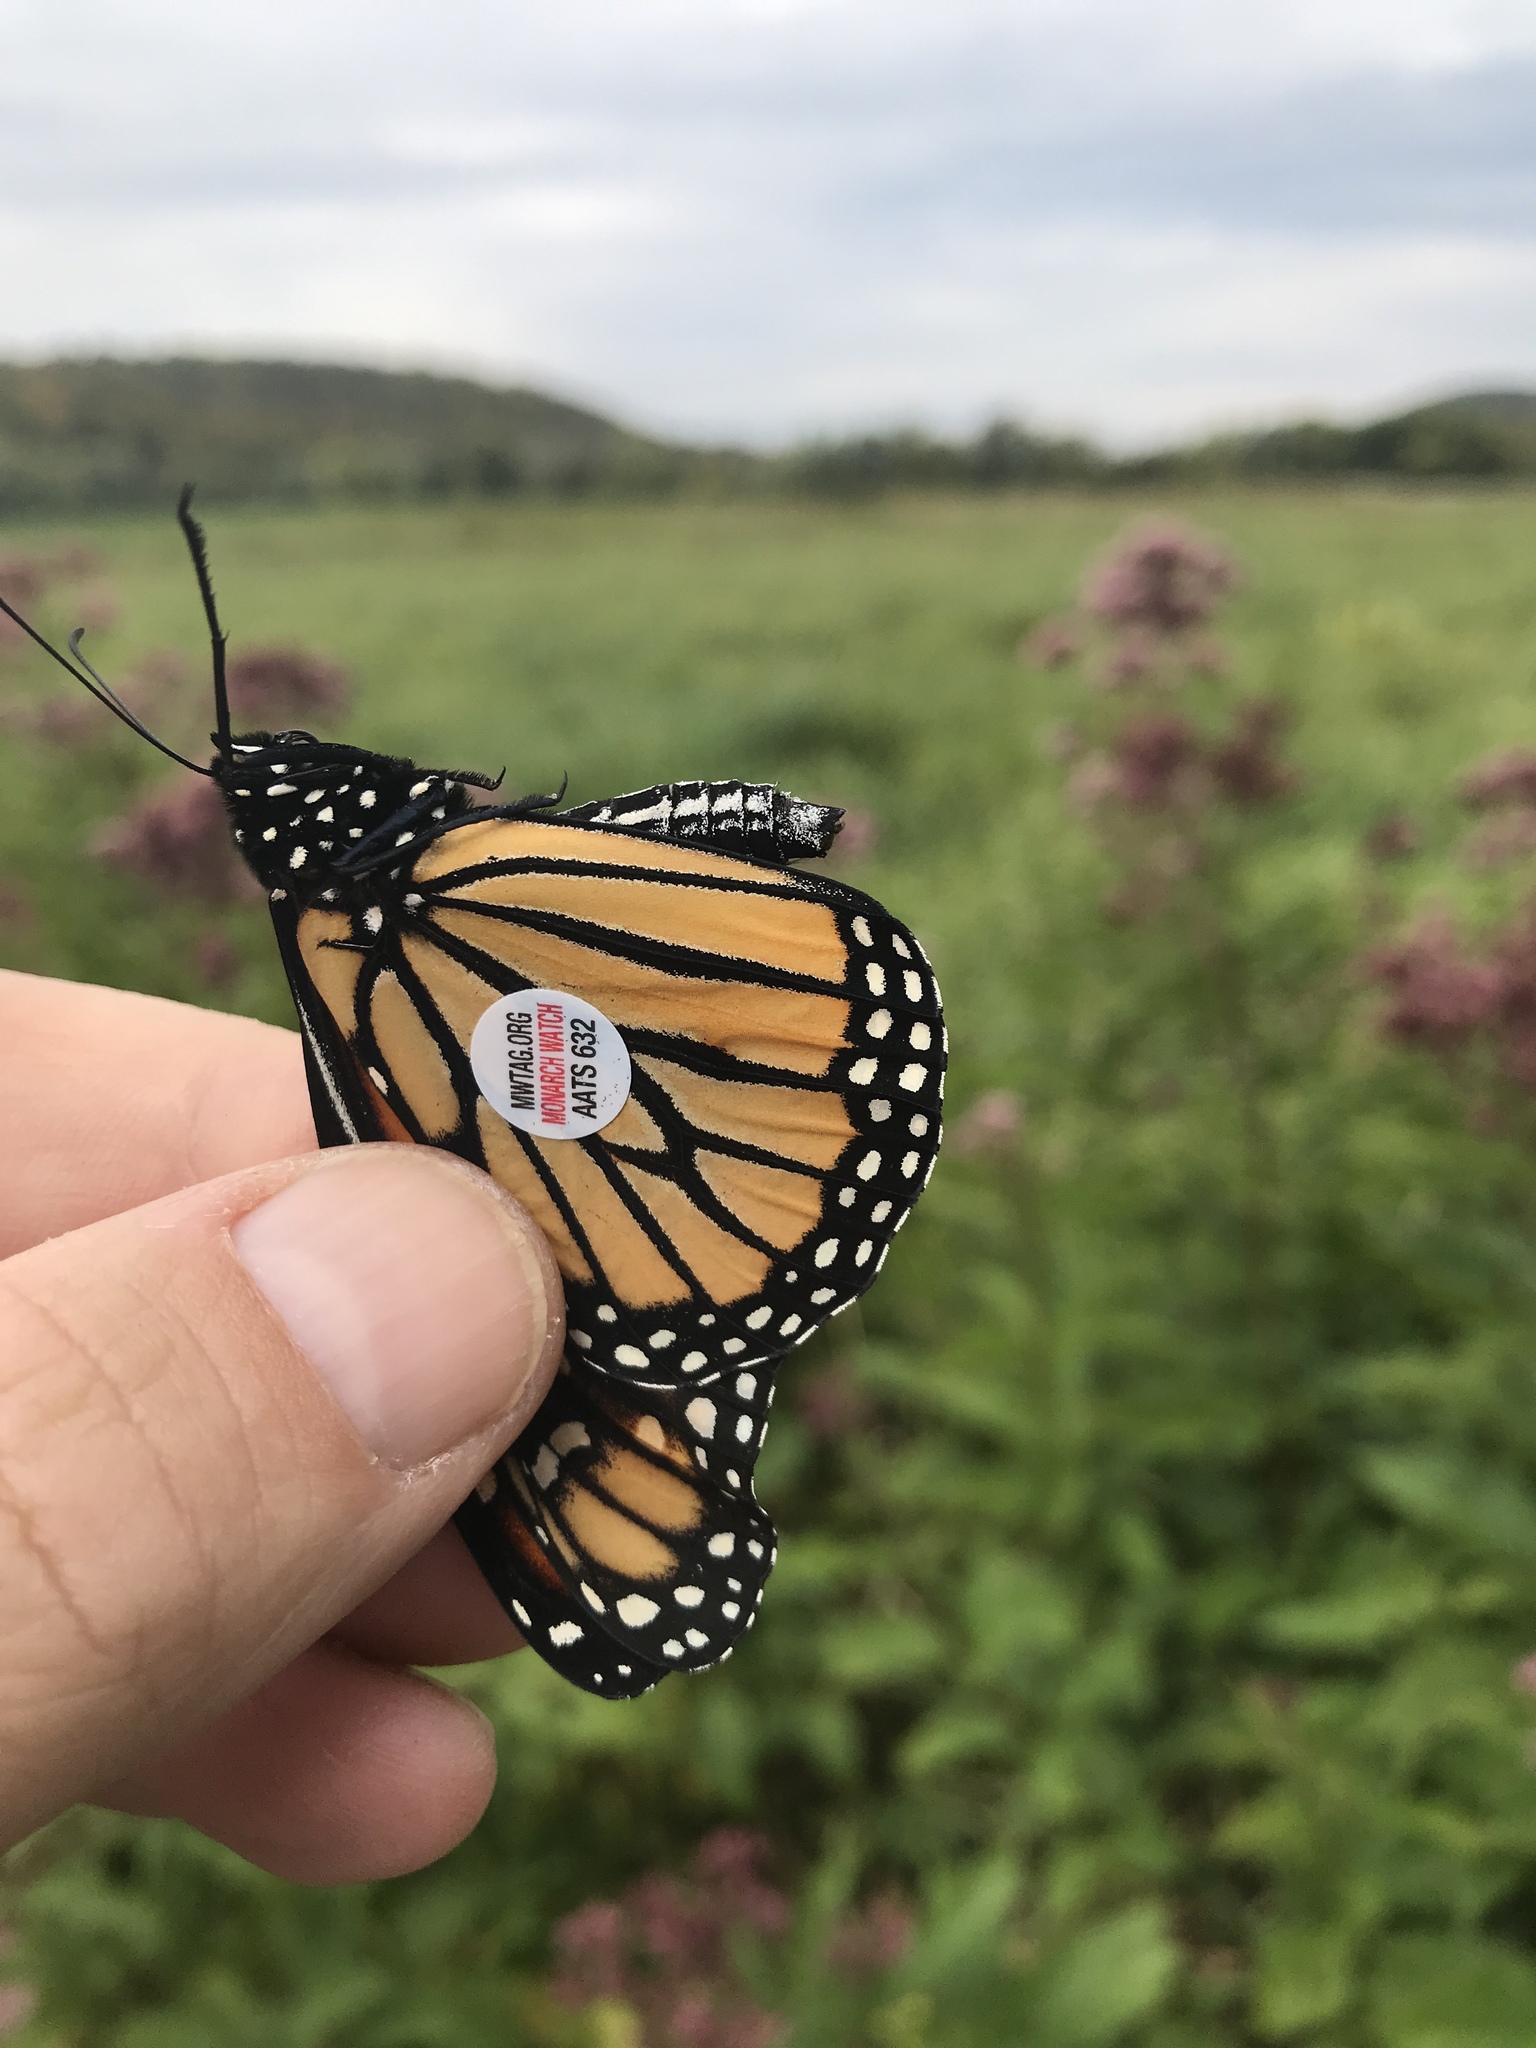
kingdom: Animalia
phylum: Arthropoda
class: Insecta
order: Lepidoptera
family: Nymphalidae
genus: Danaus
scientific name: Danaus plexippus
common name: Monarch
